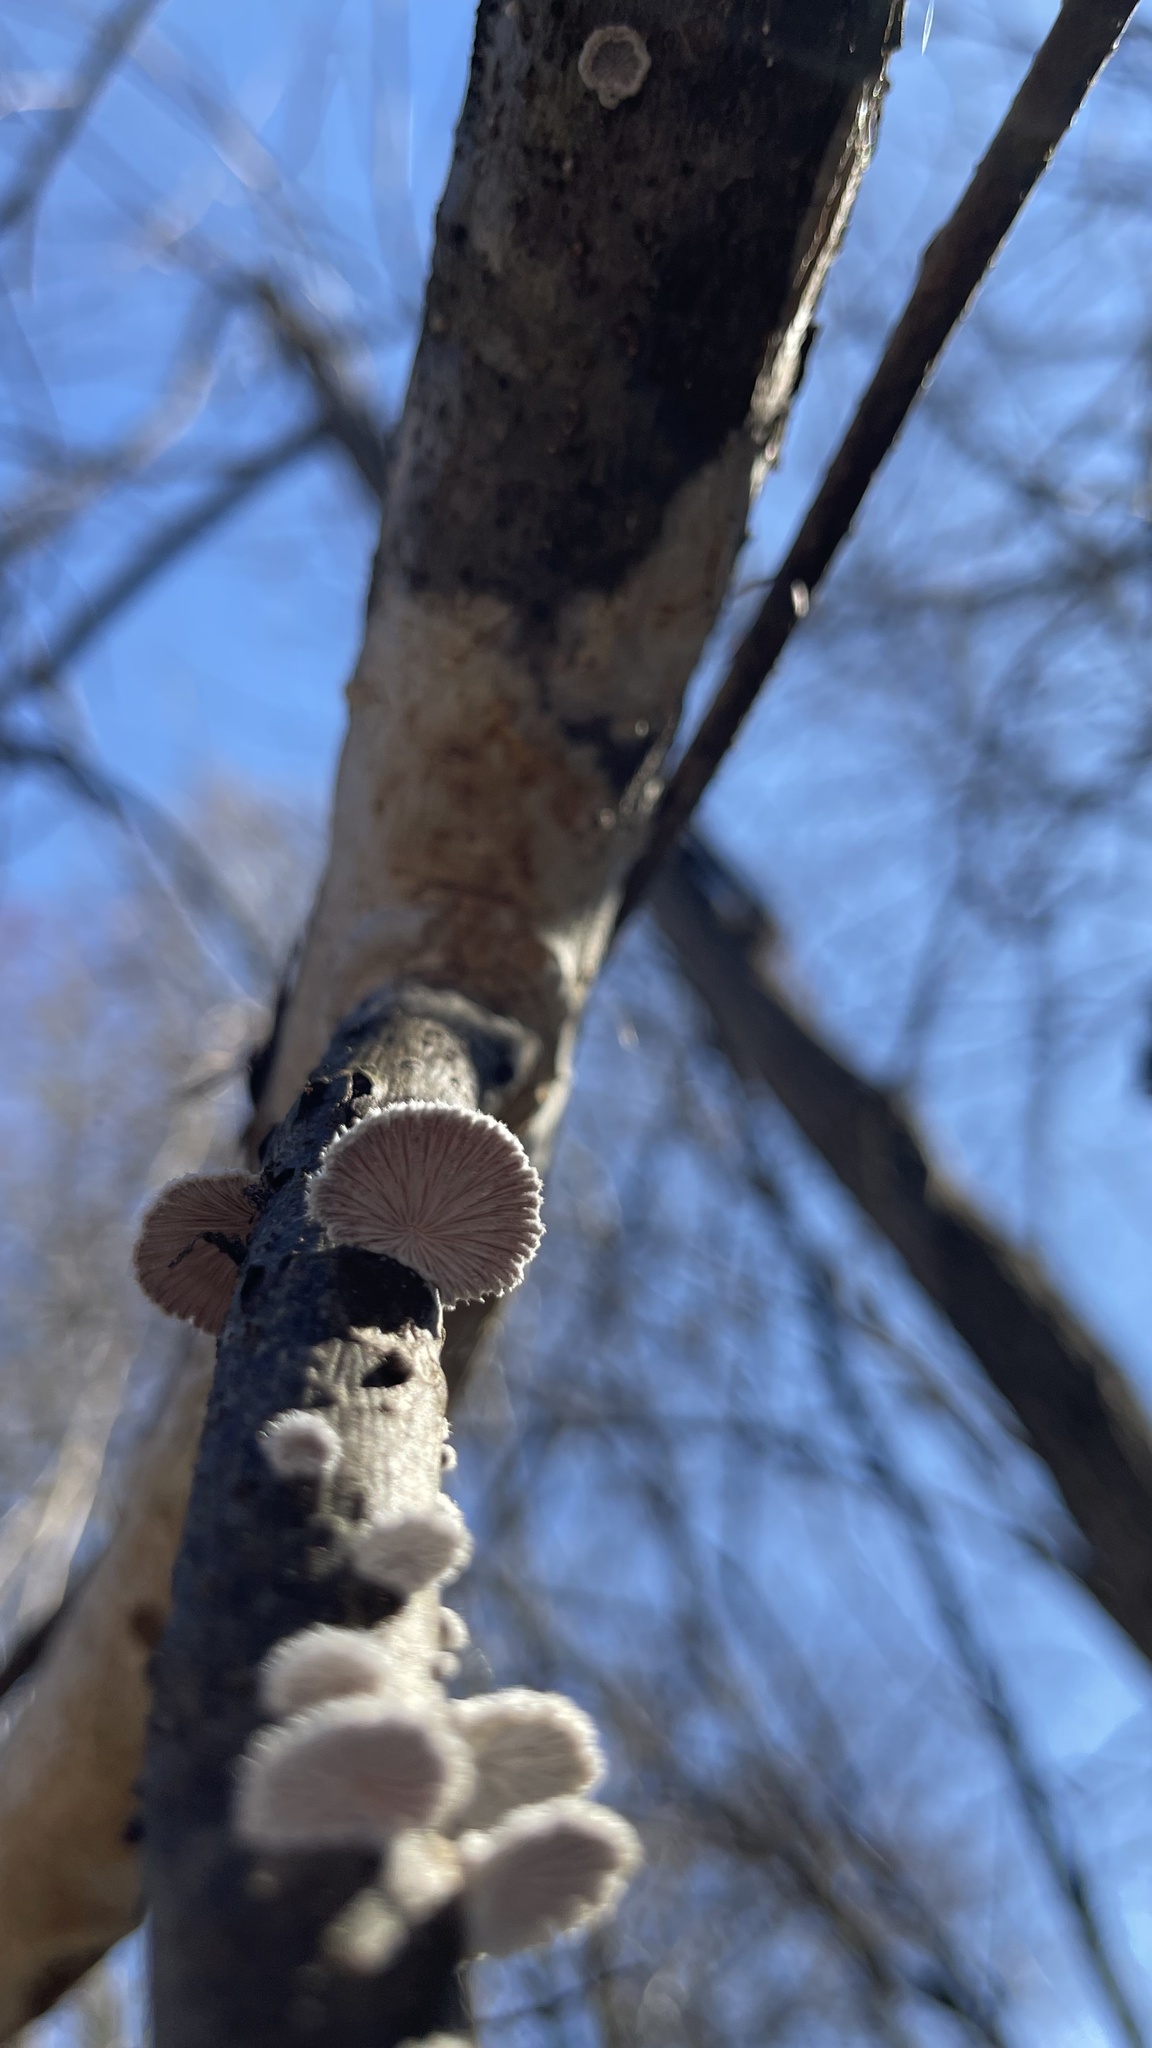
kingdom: Fungi
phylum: Basidiomycota
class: Agaricomycetes
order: Agaricales
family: Schizophyllaceae
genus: Schizophyllum
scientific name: Schizophyllum commune
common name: Common porecrust
